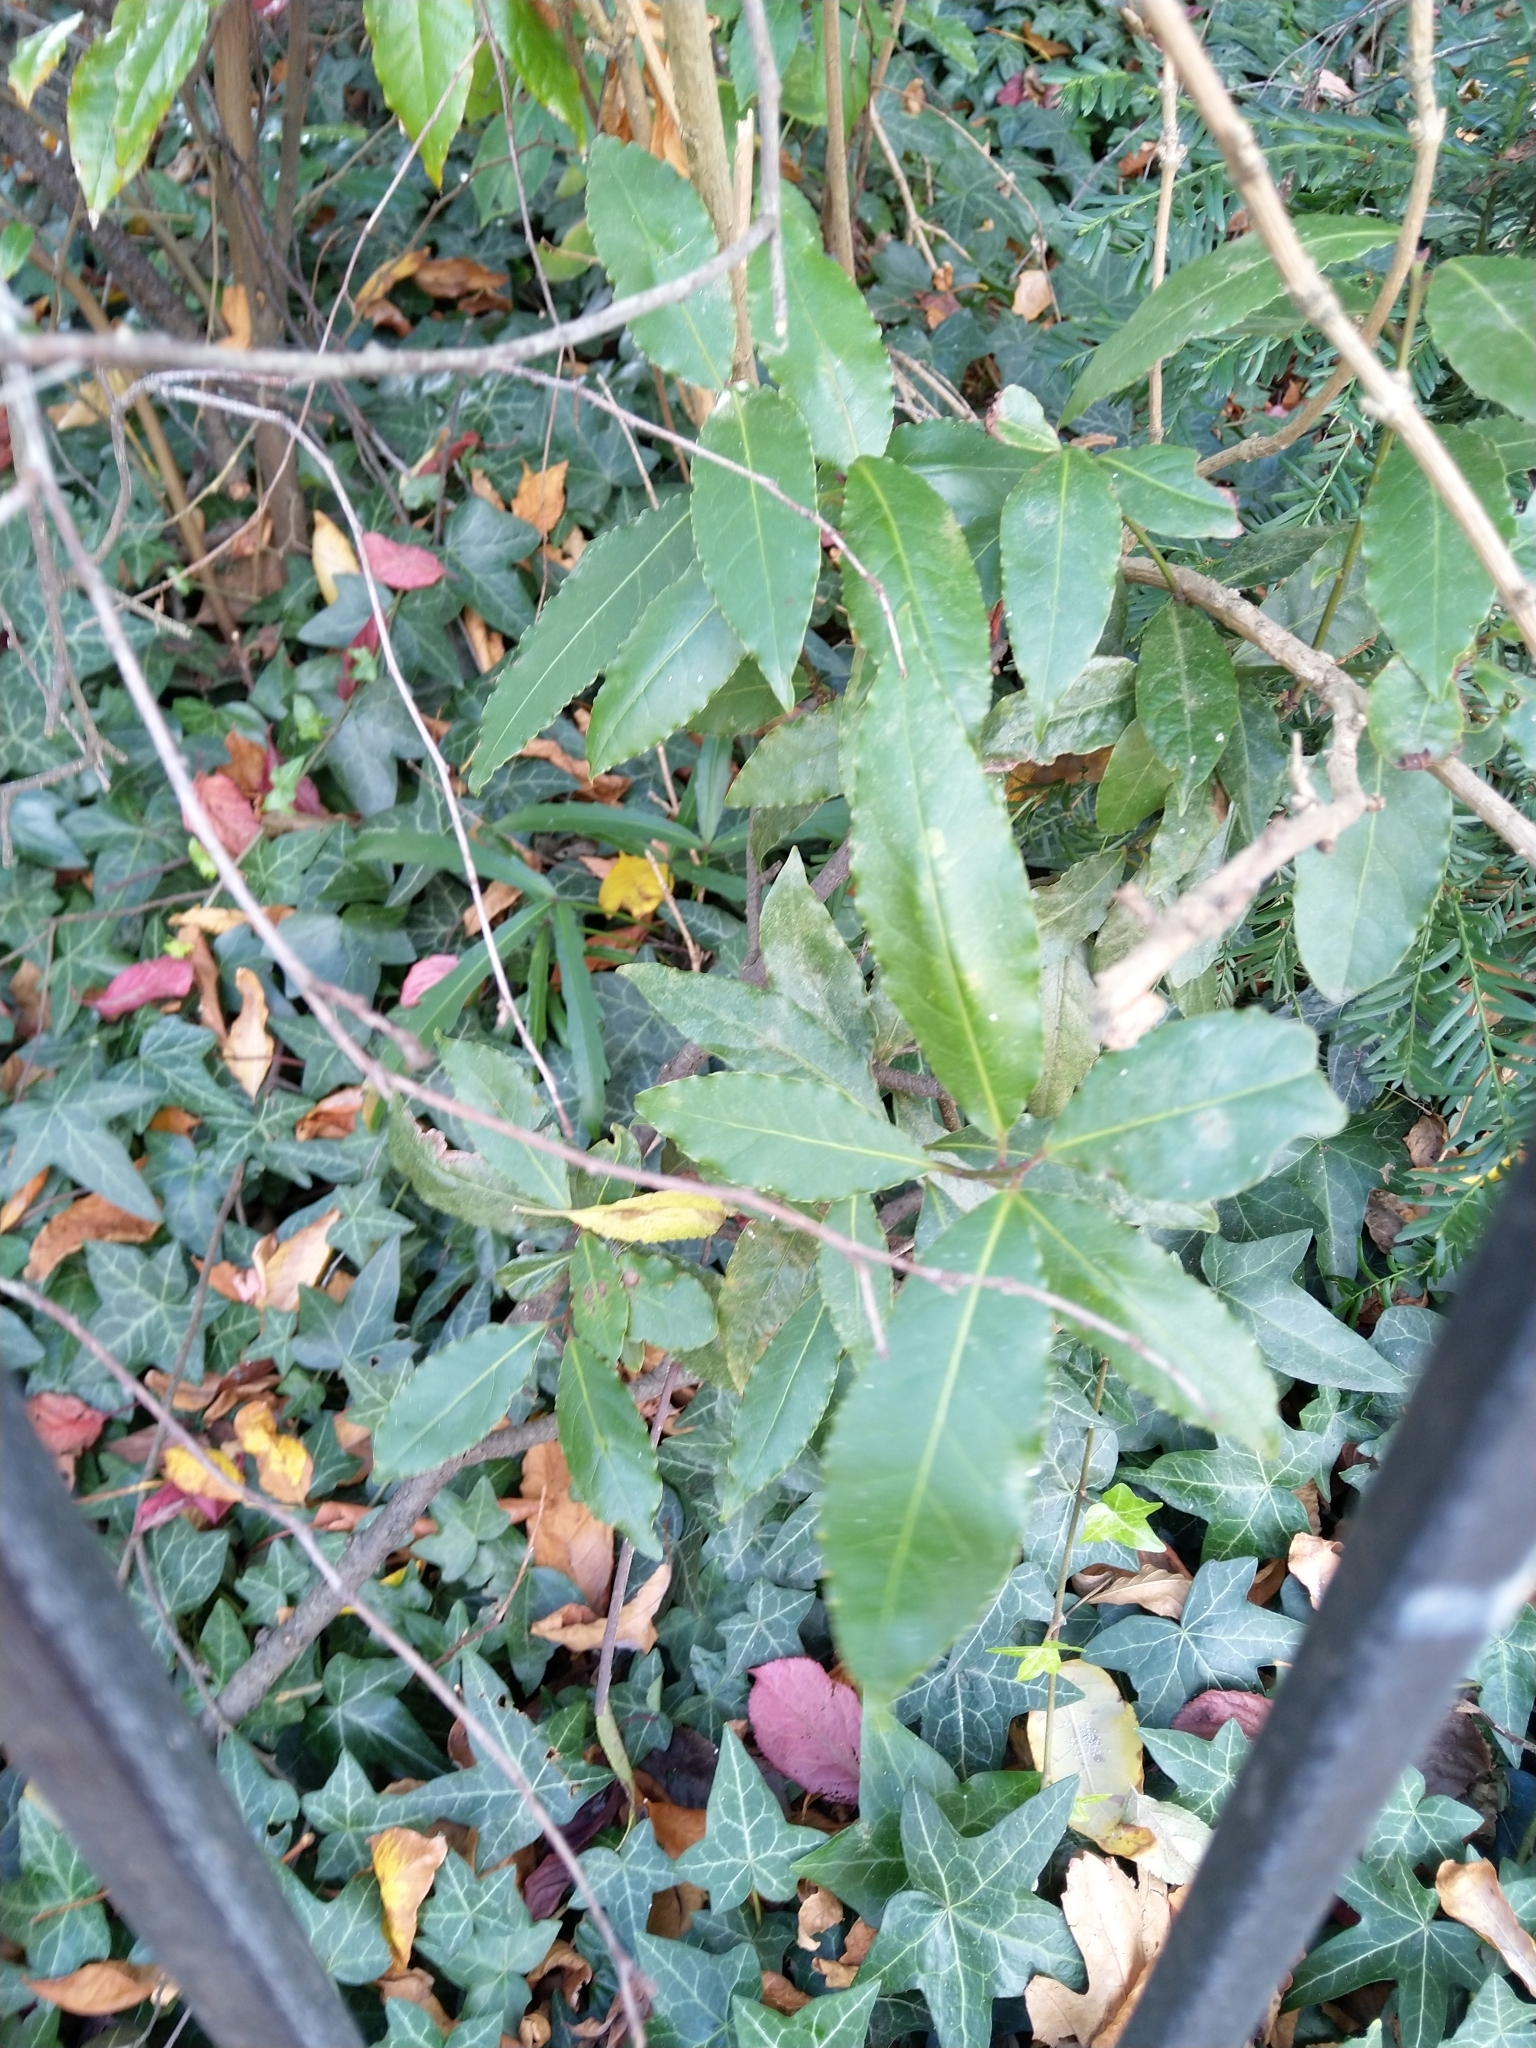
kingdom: Plantae
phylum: Tracheophyta
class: Magnoliopsida
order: Laurales
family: Lauraceae
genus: Laurus
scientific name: Laurus nobilis
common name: Bay
